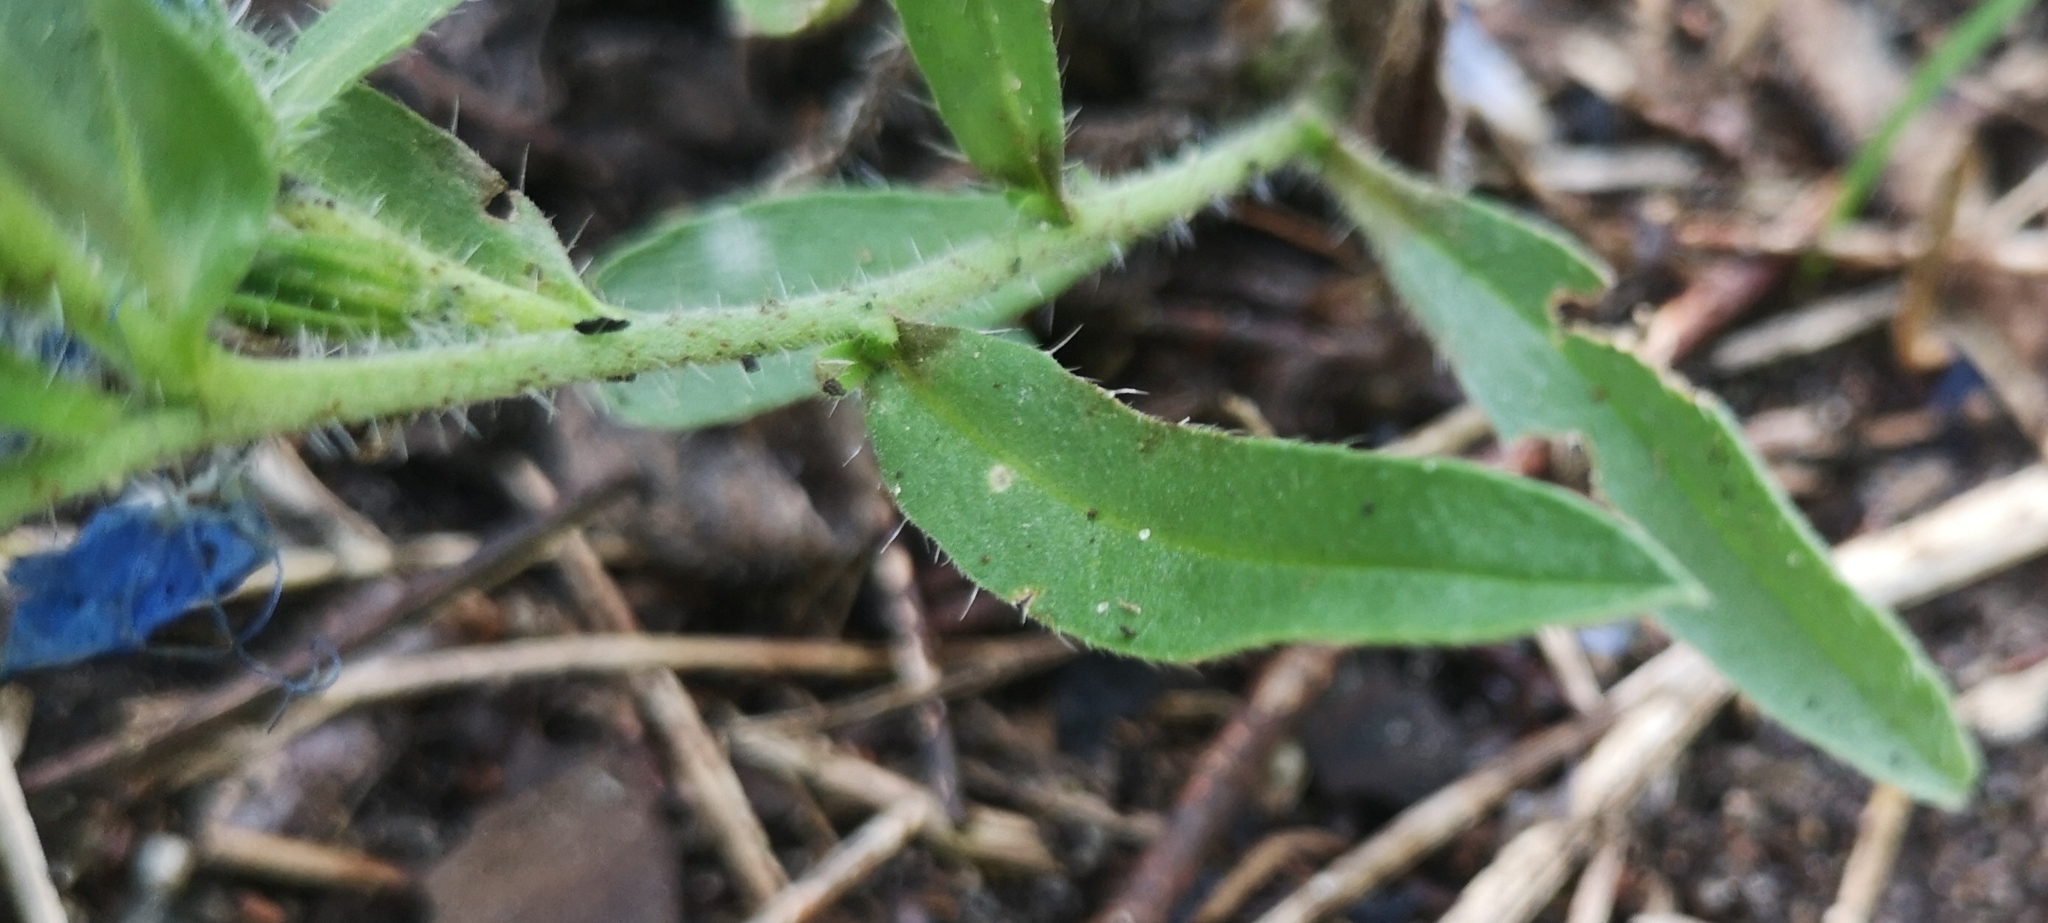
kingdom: Plantae
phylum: Tracheophyta
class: Magnoliopsida
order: Boraginales
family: Boraginaceae
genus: Echium
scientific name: Echium vulgare
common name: Common viper's bugloss
